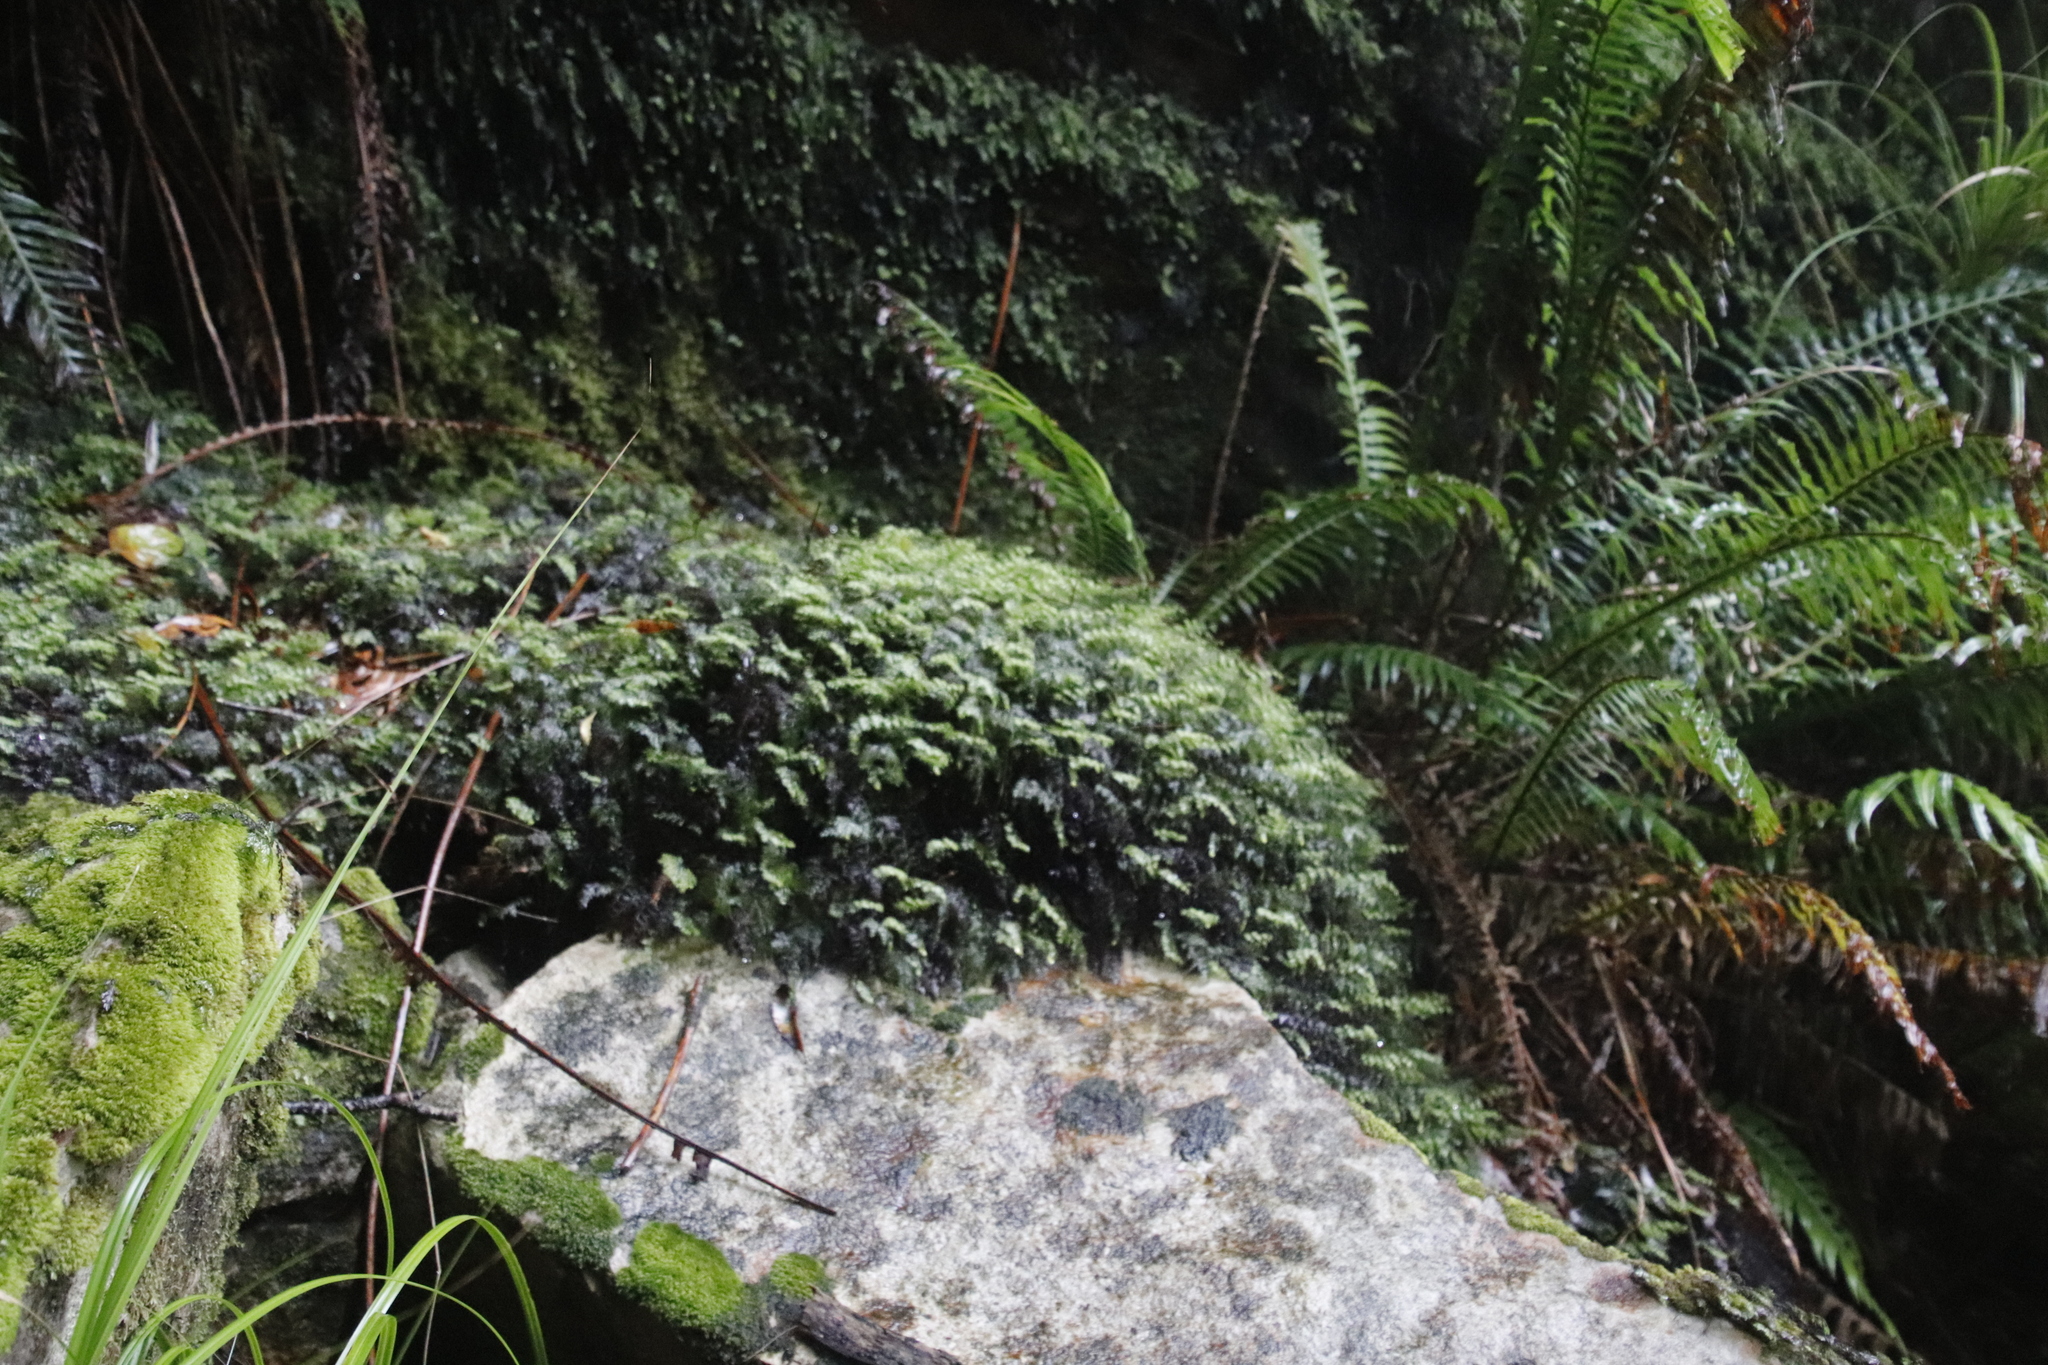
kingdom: Plantae
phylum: Tracheophyta
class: Polypodiopsida
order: Hymenophyllales
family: Hymenophyllaceae
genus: Hymenophyllum
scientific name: Hymenophyllum tunbrigense
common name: Tunbridge filmy fern
